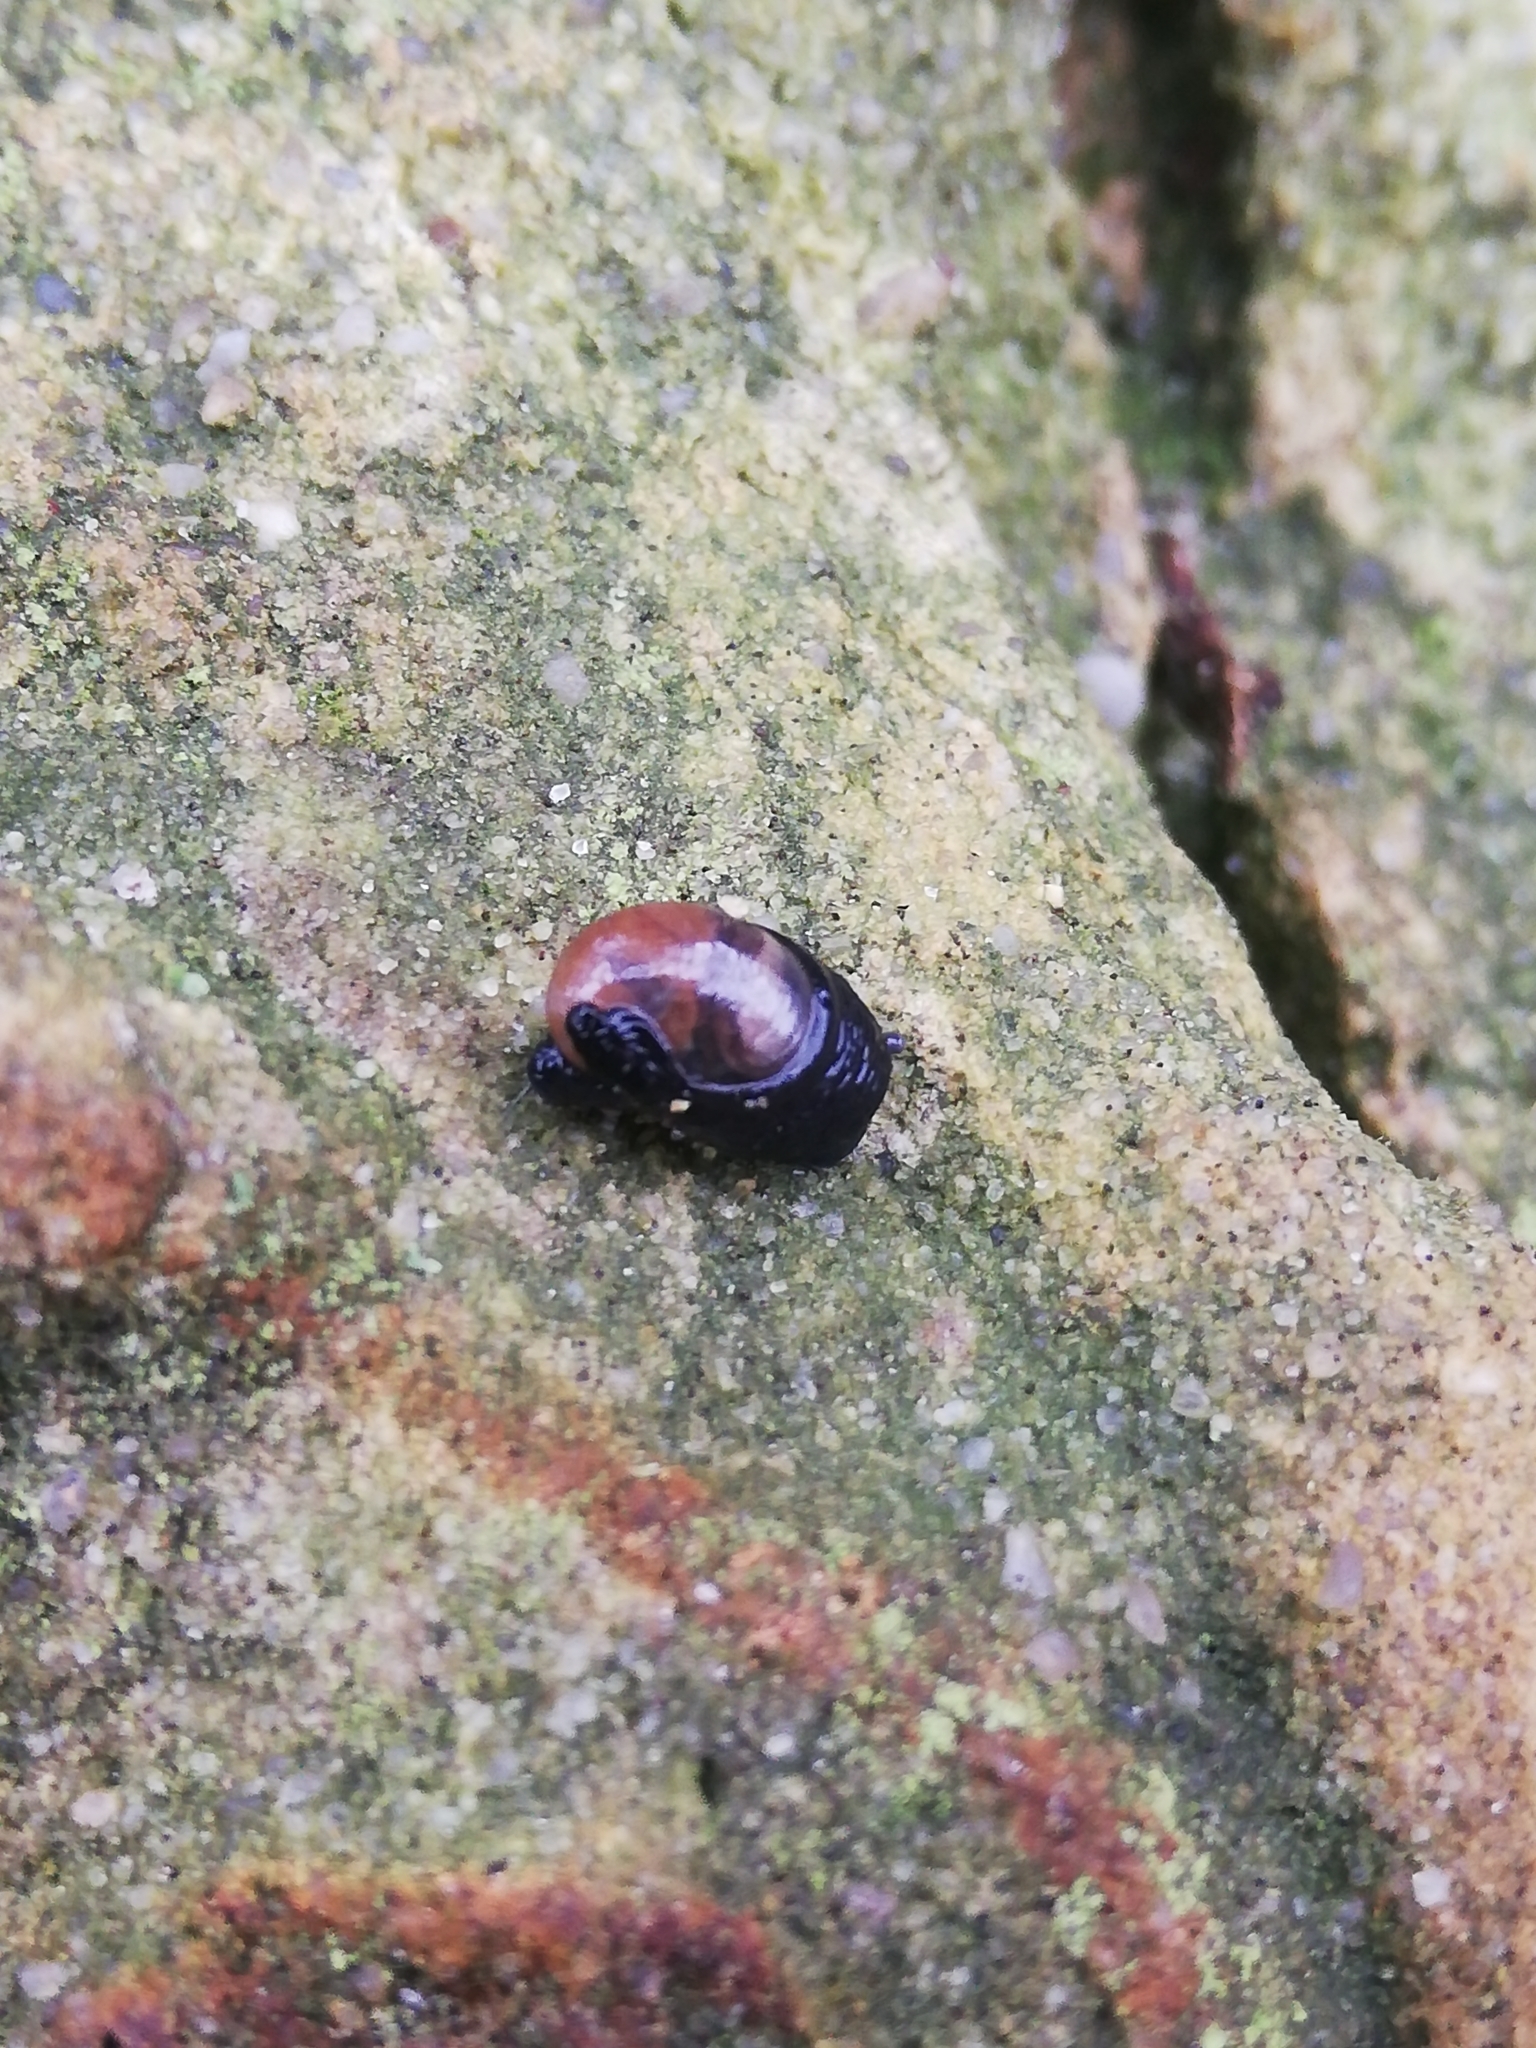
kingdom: Animalia
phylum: Mollusca
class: Gastropoda
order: Stylommatophora
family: Vitrinidae
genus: Vitrinobrachium
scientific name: Vitrinobrachium breve
